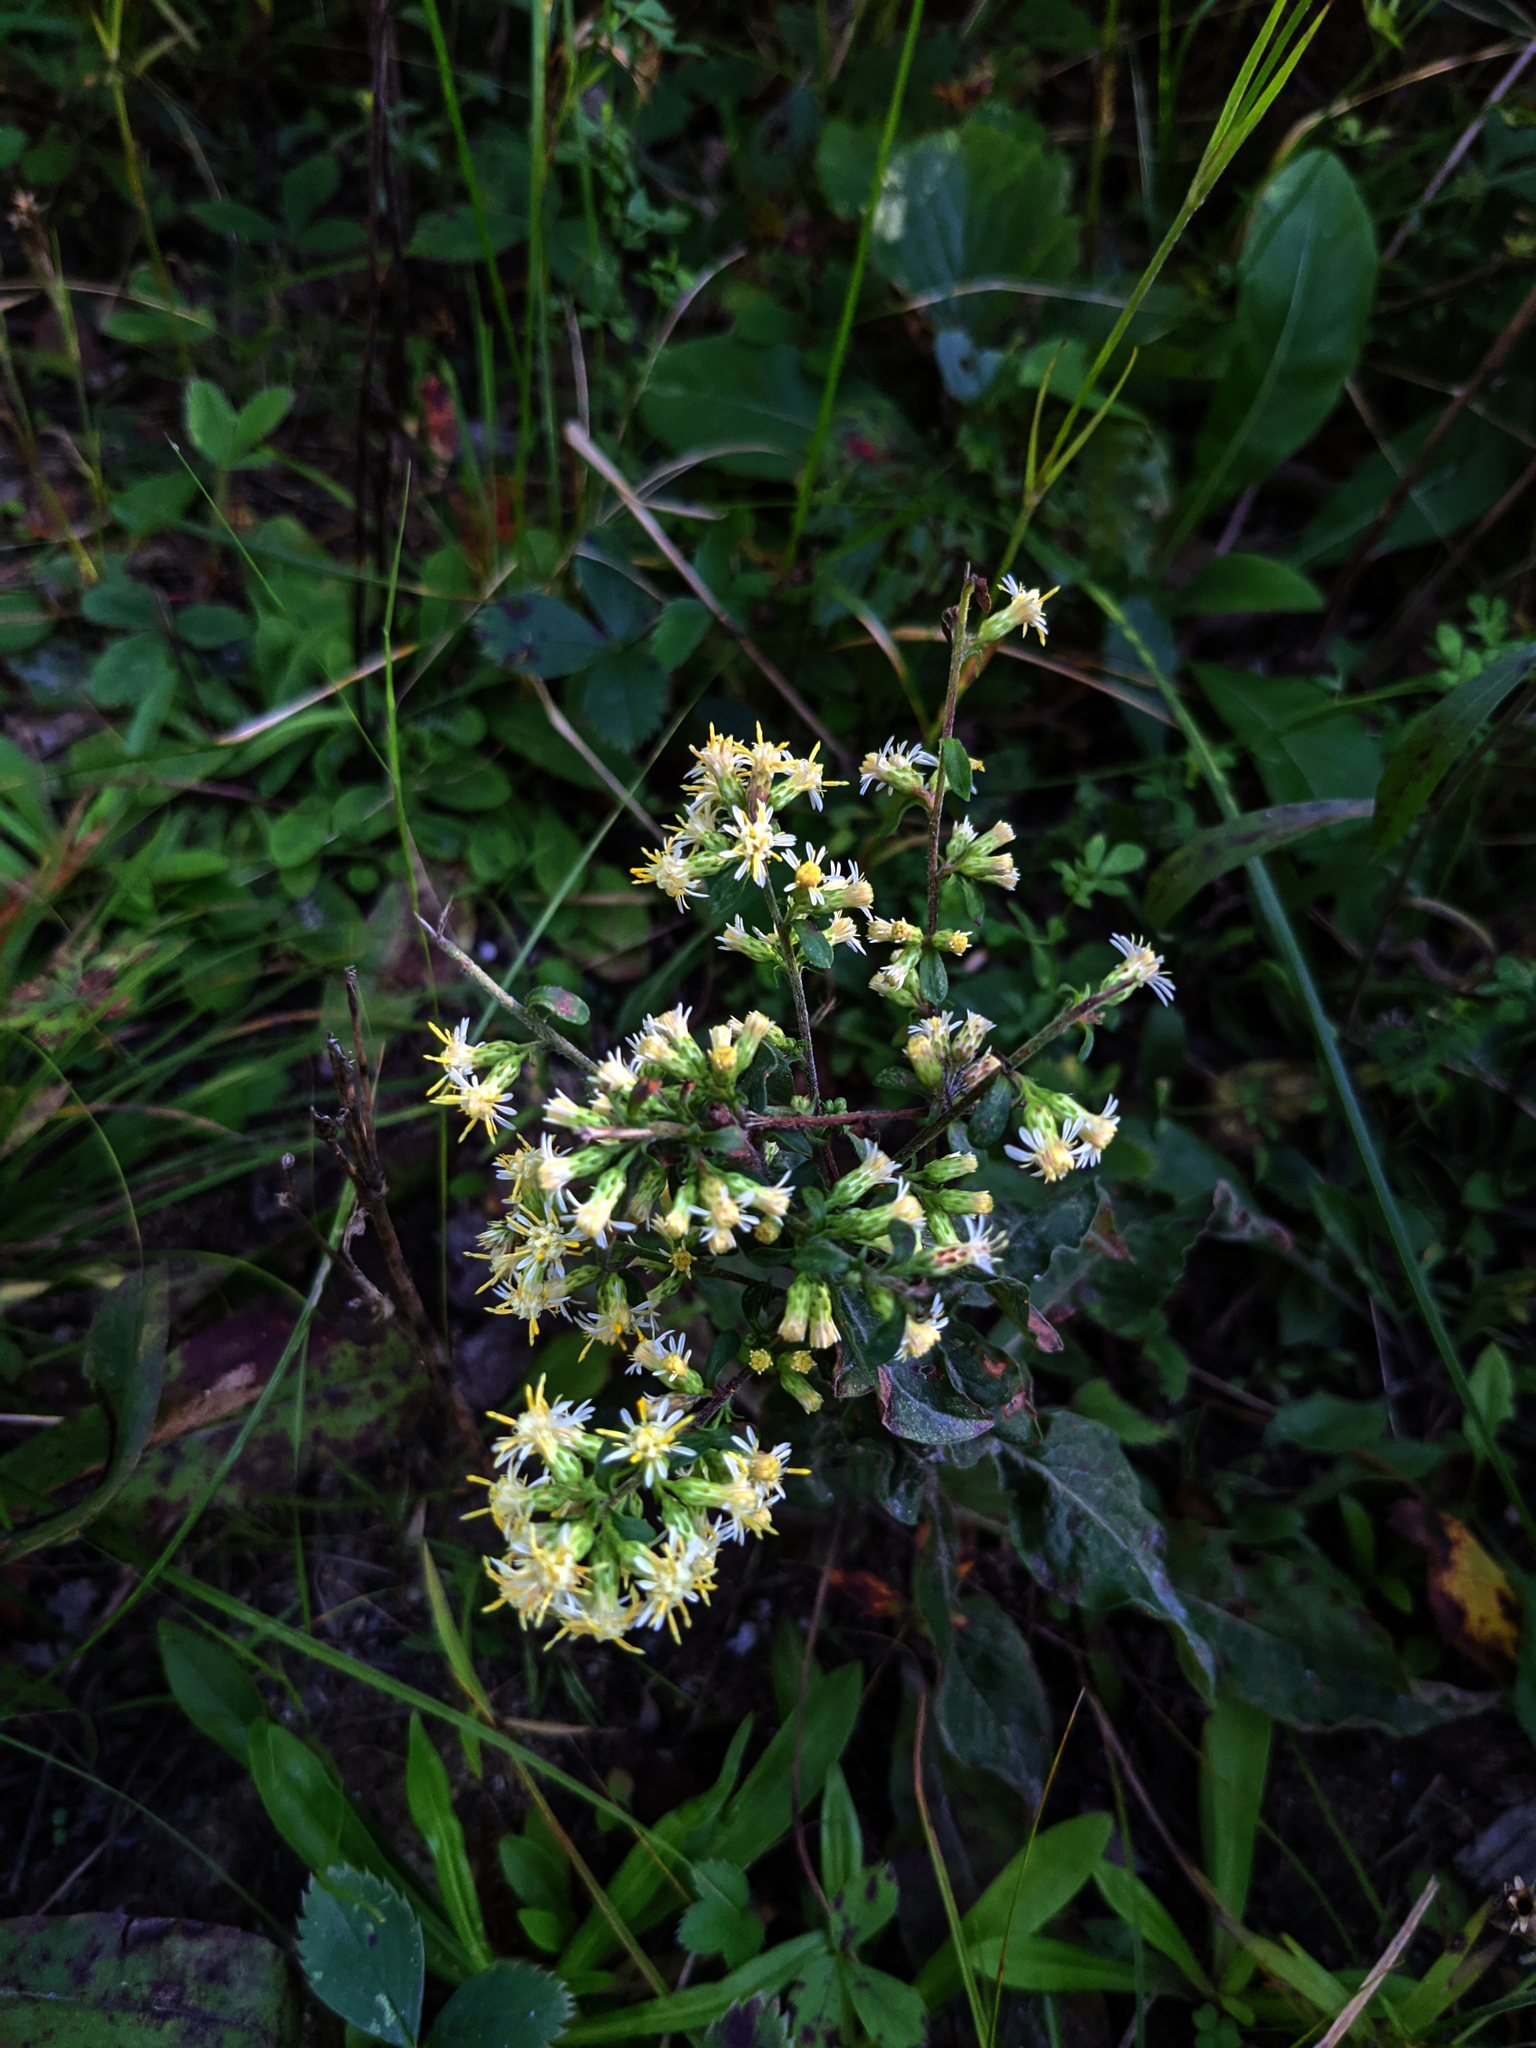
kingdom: Plantae
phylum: Tracheophyta
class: Magnoliopsida
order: Asterales
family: Asteraceae
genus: Solidago
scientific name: Solidago bicolor
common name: Silverrod
